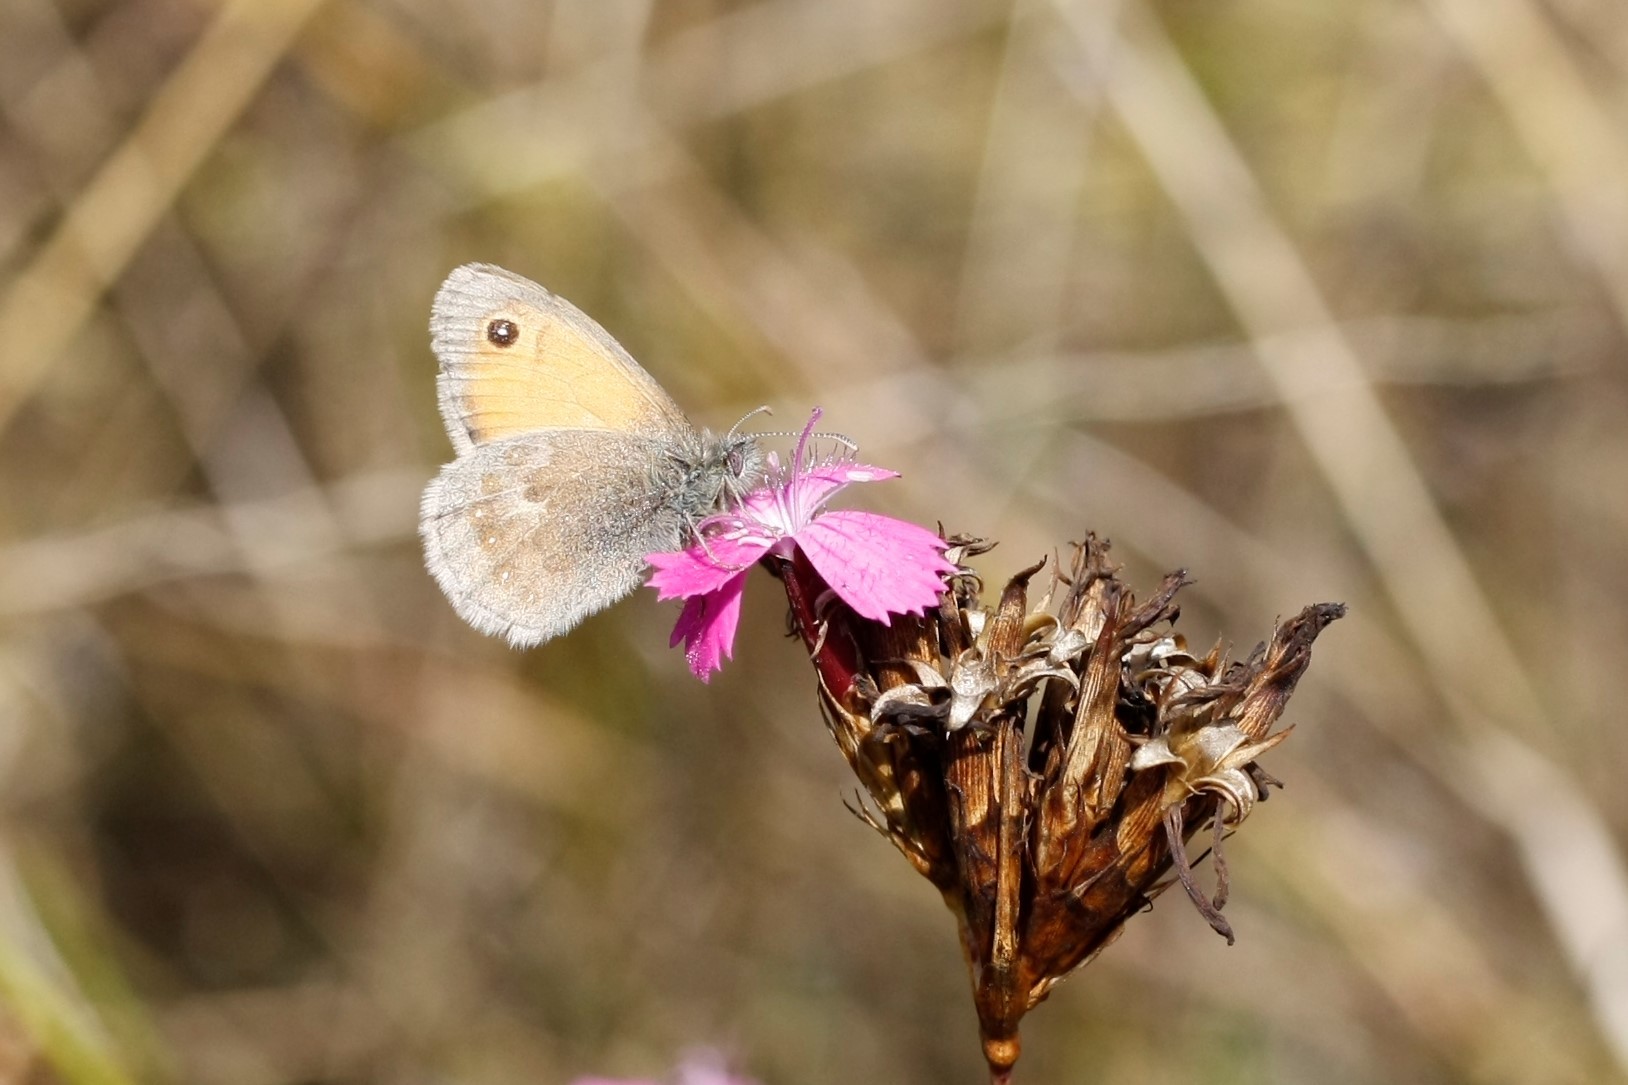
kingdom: Animalia
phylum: Arthropoda
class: Insecta
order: Lepidoptera
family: Nymphalidae
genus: Coenonympha
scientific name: Coenonympha pamphilus
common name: Small heath
